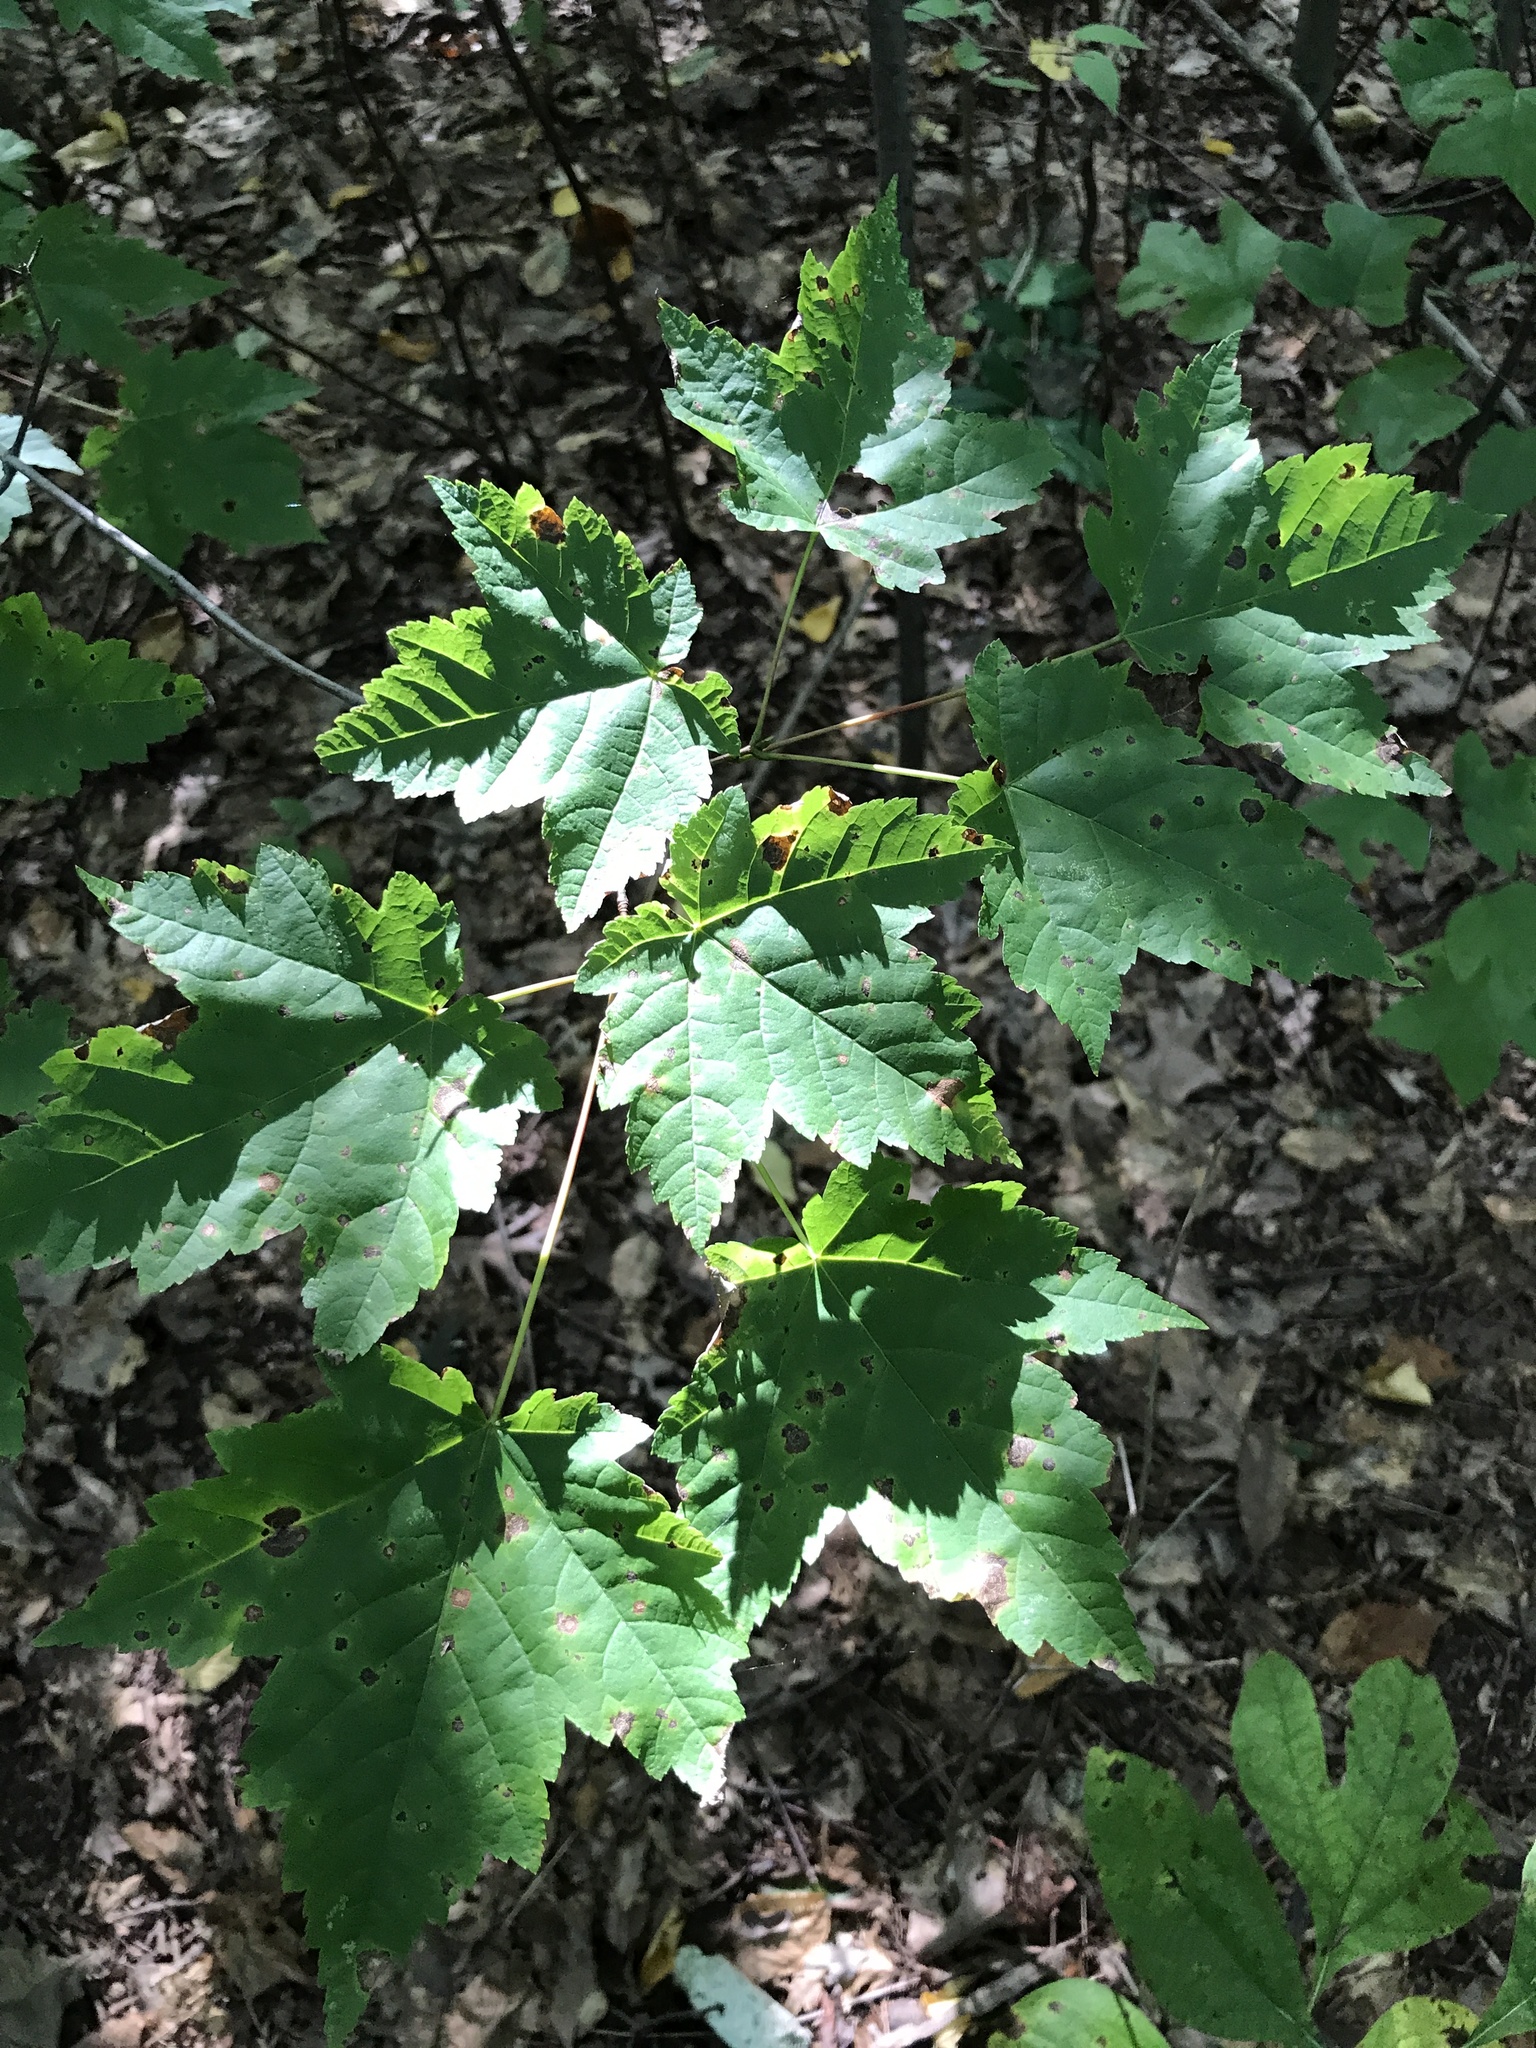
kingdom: Plantae
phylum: Tracheophyta
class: Magnoliopsida
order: Sapindales
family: Sapindaceae
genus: Acer
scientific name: Acer rubrum
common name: Red maple
